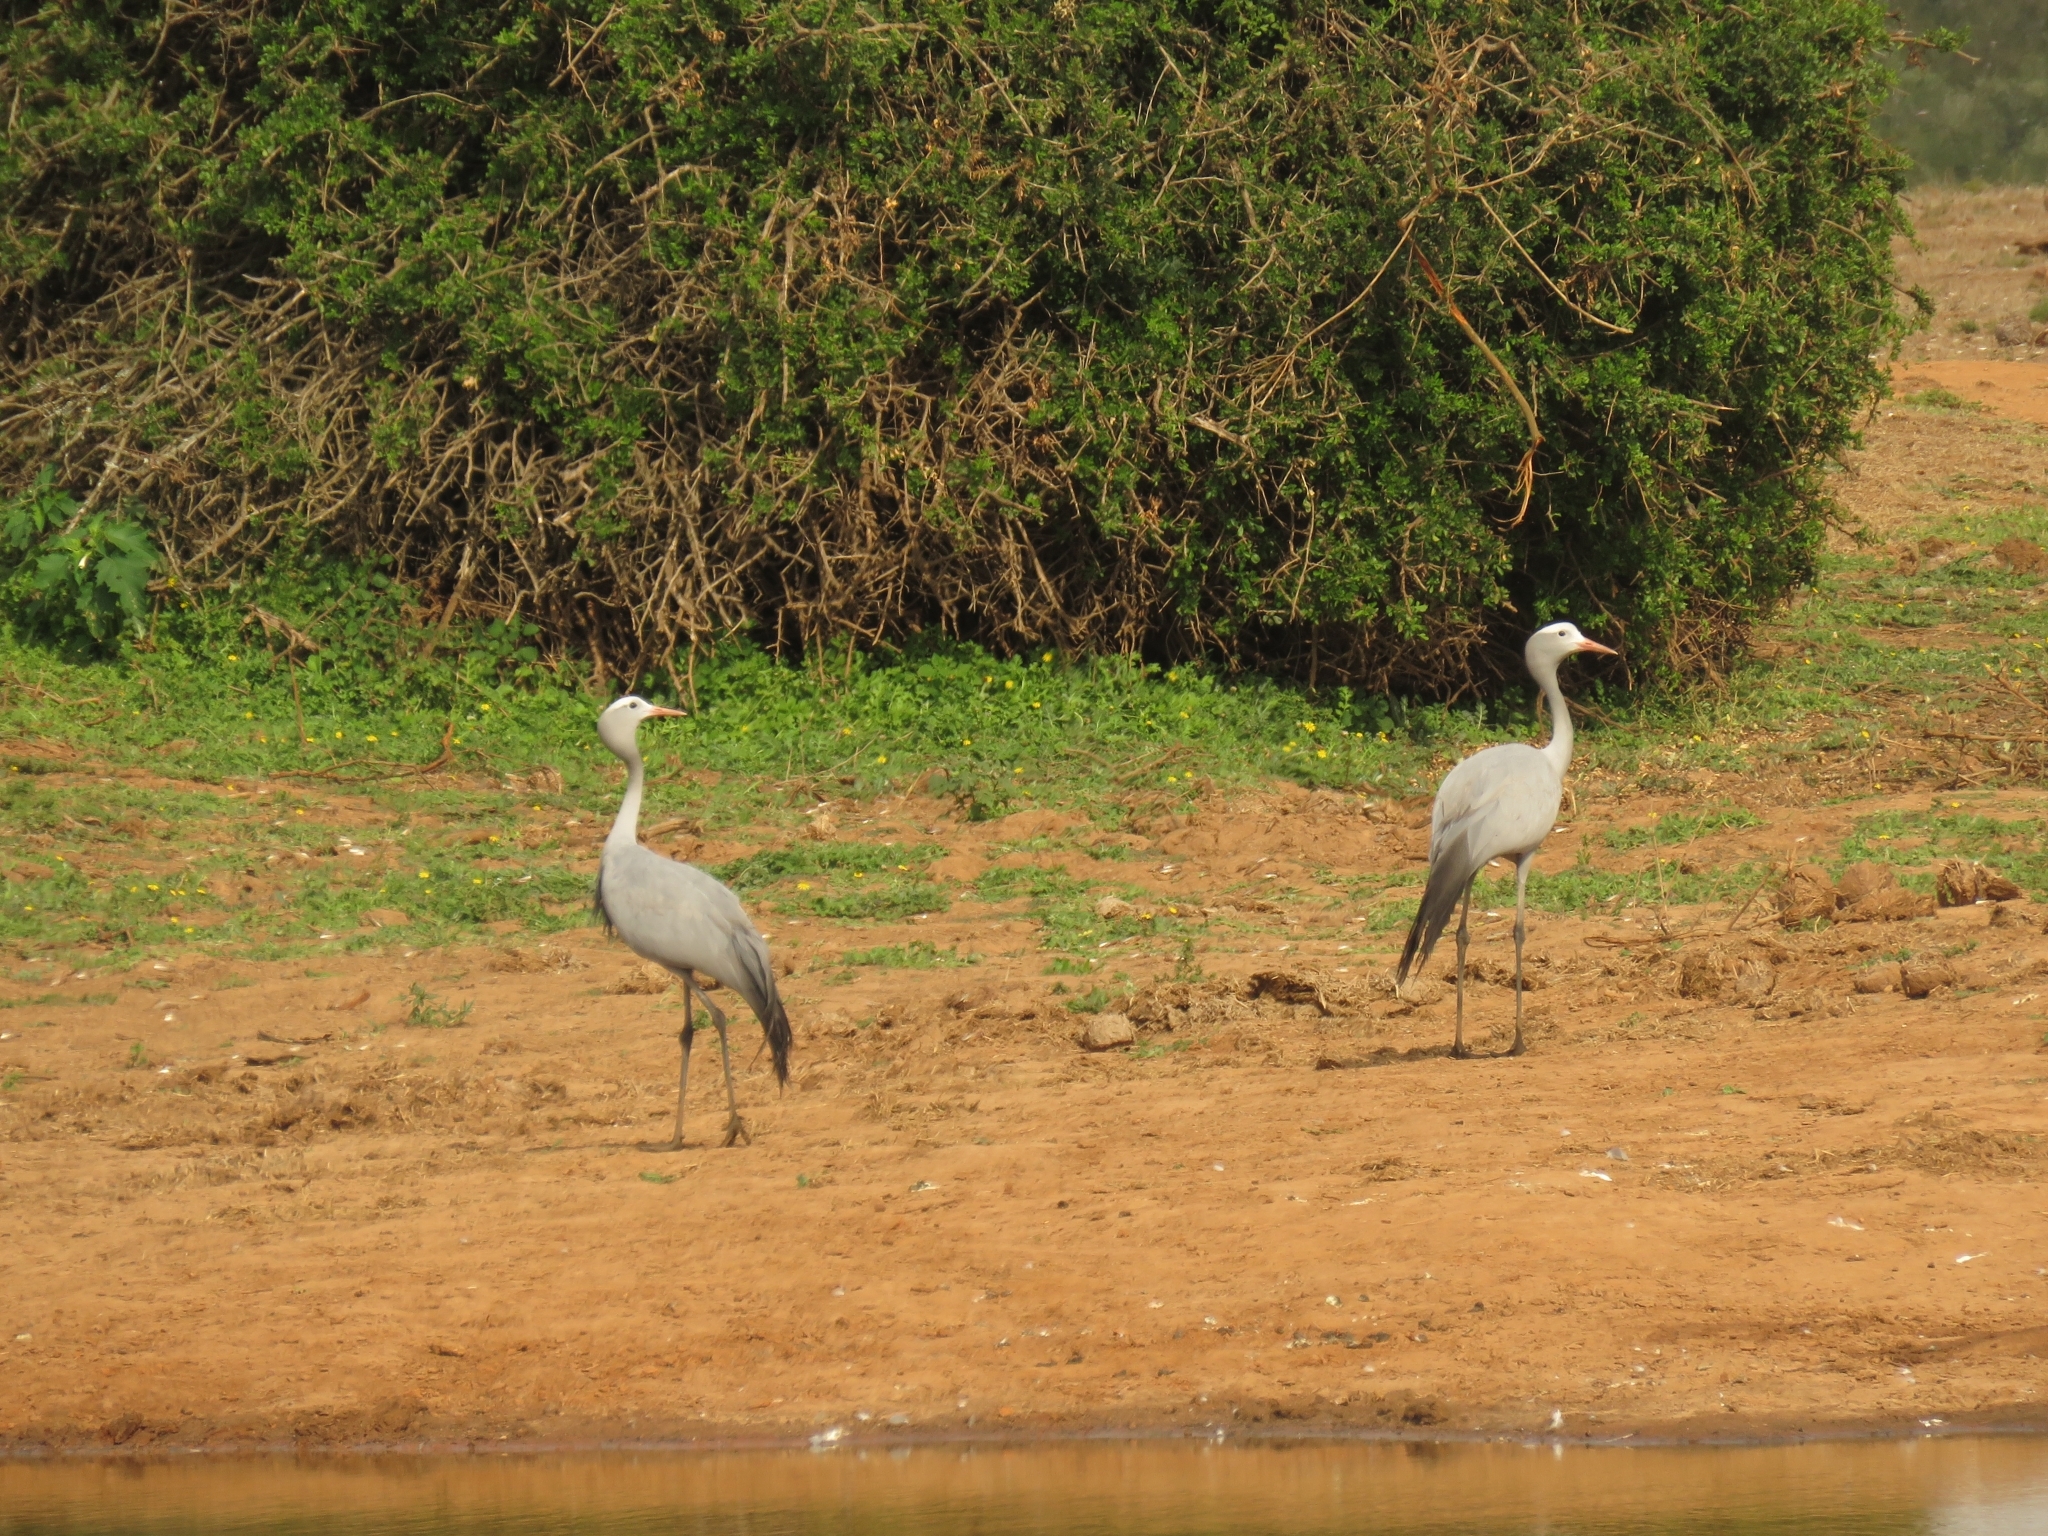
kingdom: Animalia
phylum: Chordata
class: Aves
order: Gruiformes
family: Gruidae
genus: Anthropoides
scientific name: Anthropoides paradiseus
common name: Blue crane
